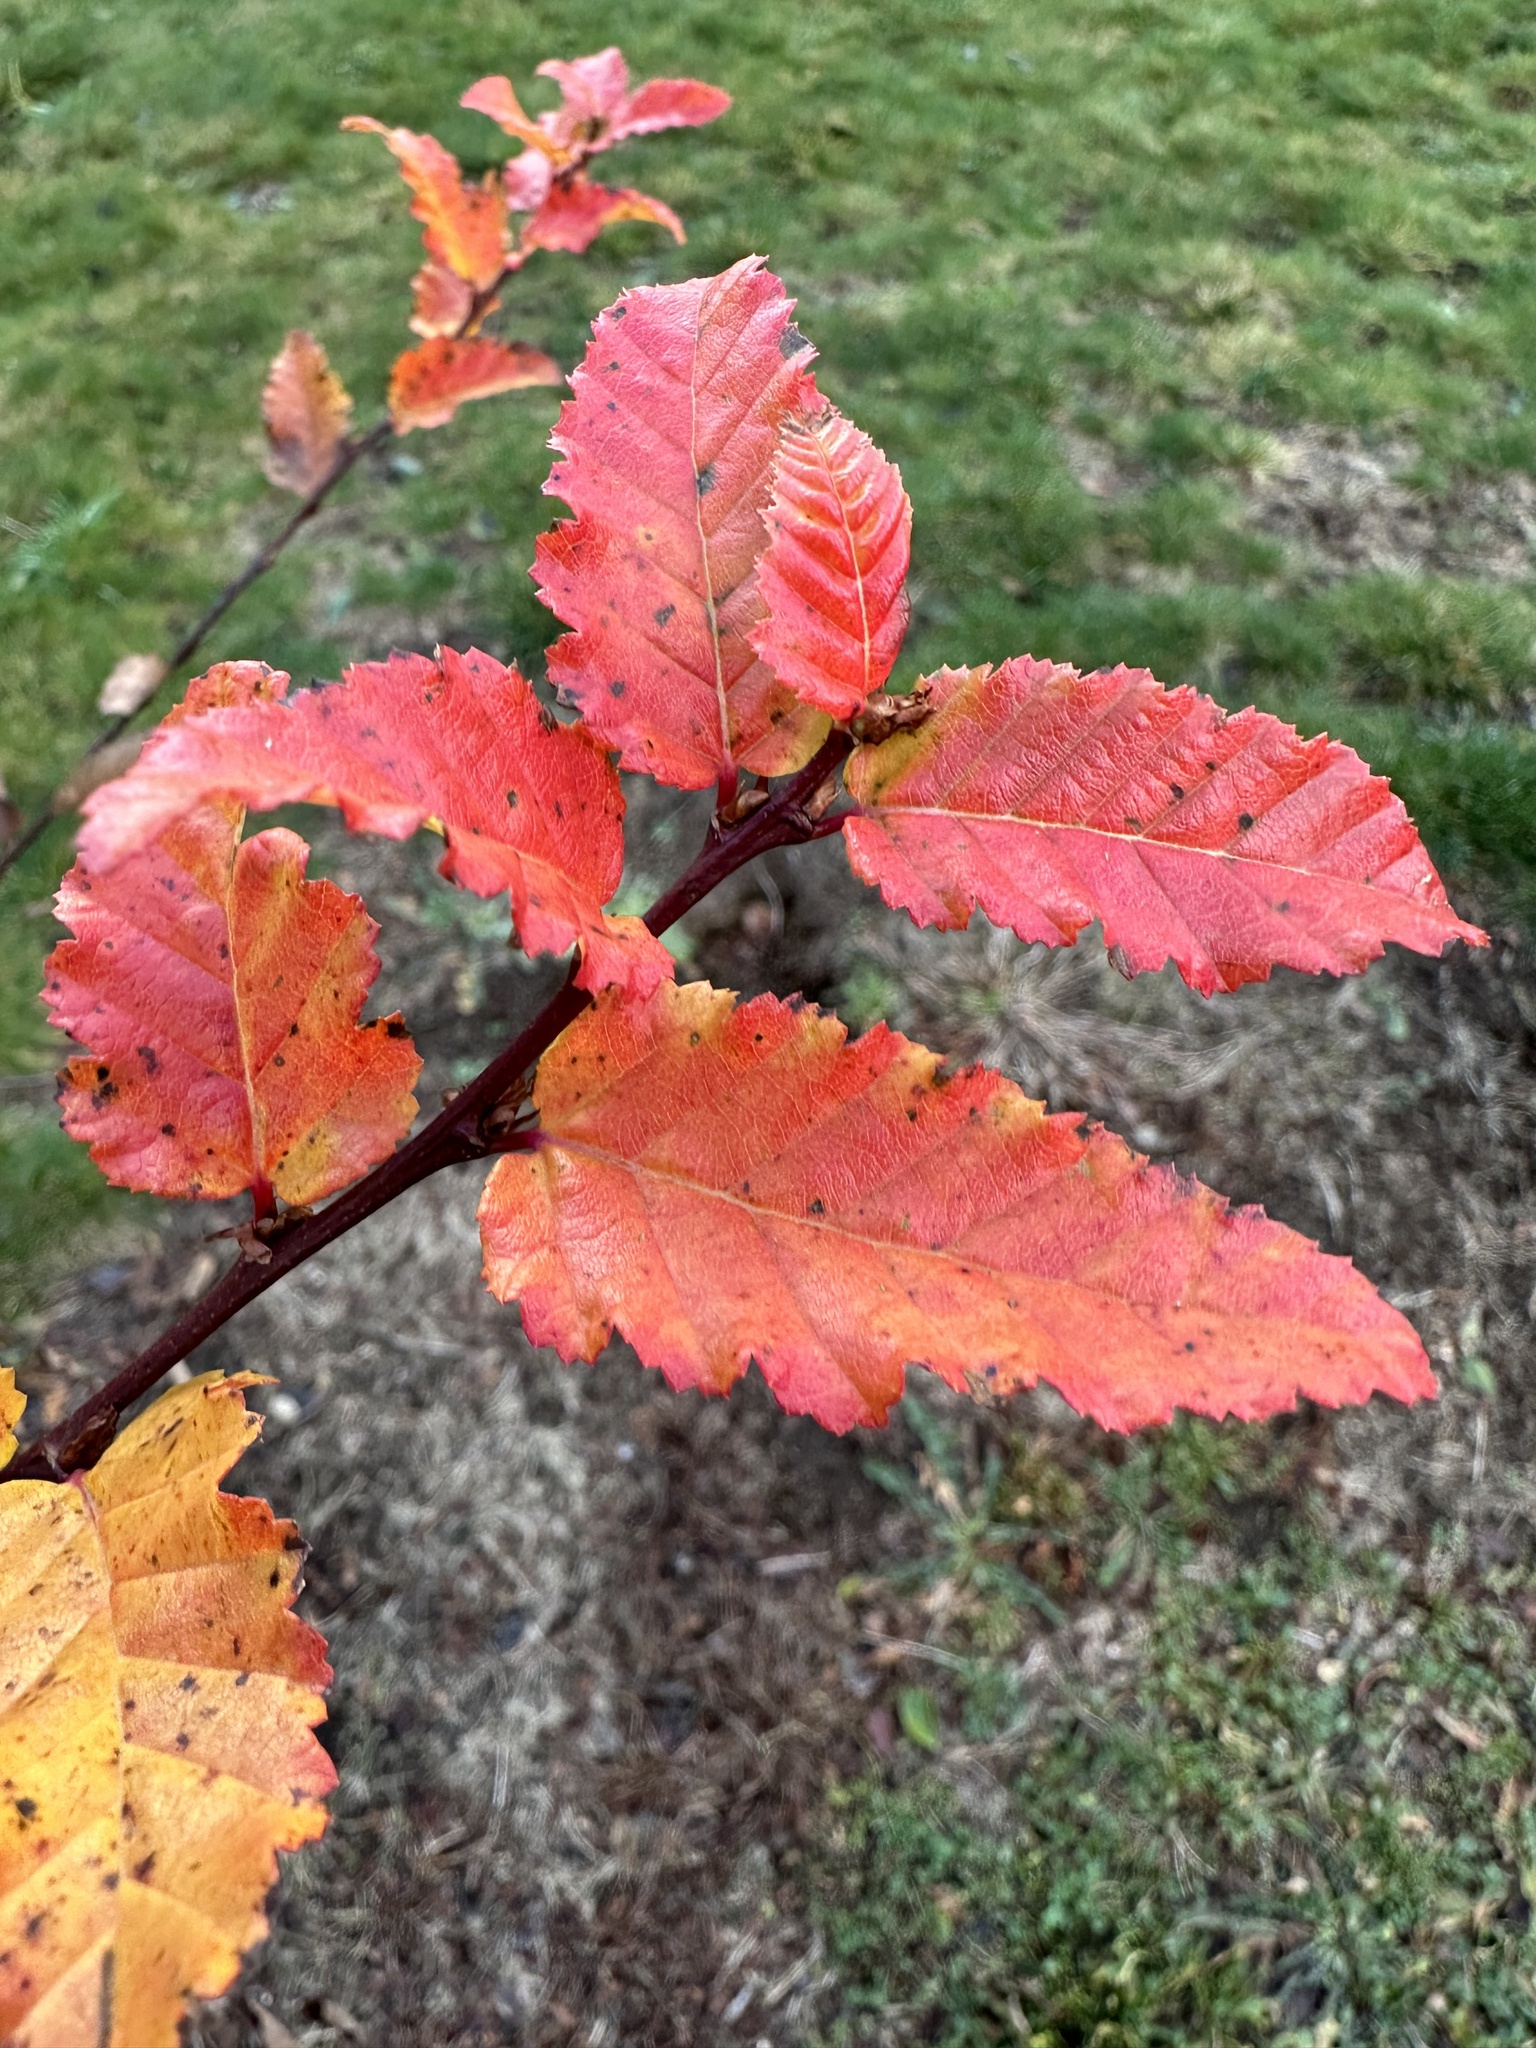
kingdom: Plantae
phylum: Tracheophyta
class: Magnoliopsida
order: Fagales
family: Nothofagaceae
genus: Nothofagus
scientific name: Nothofagus obliqua
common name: Roble beech
